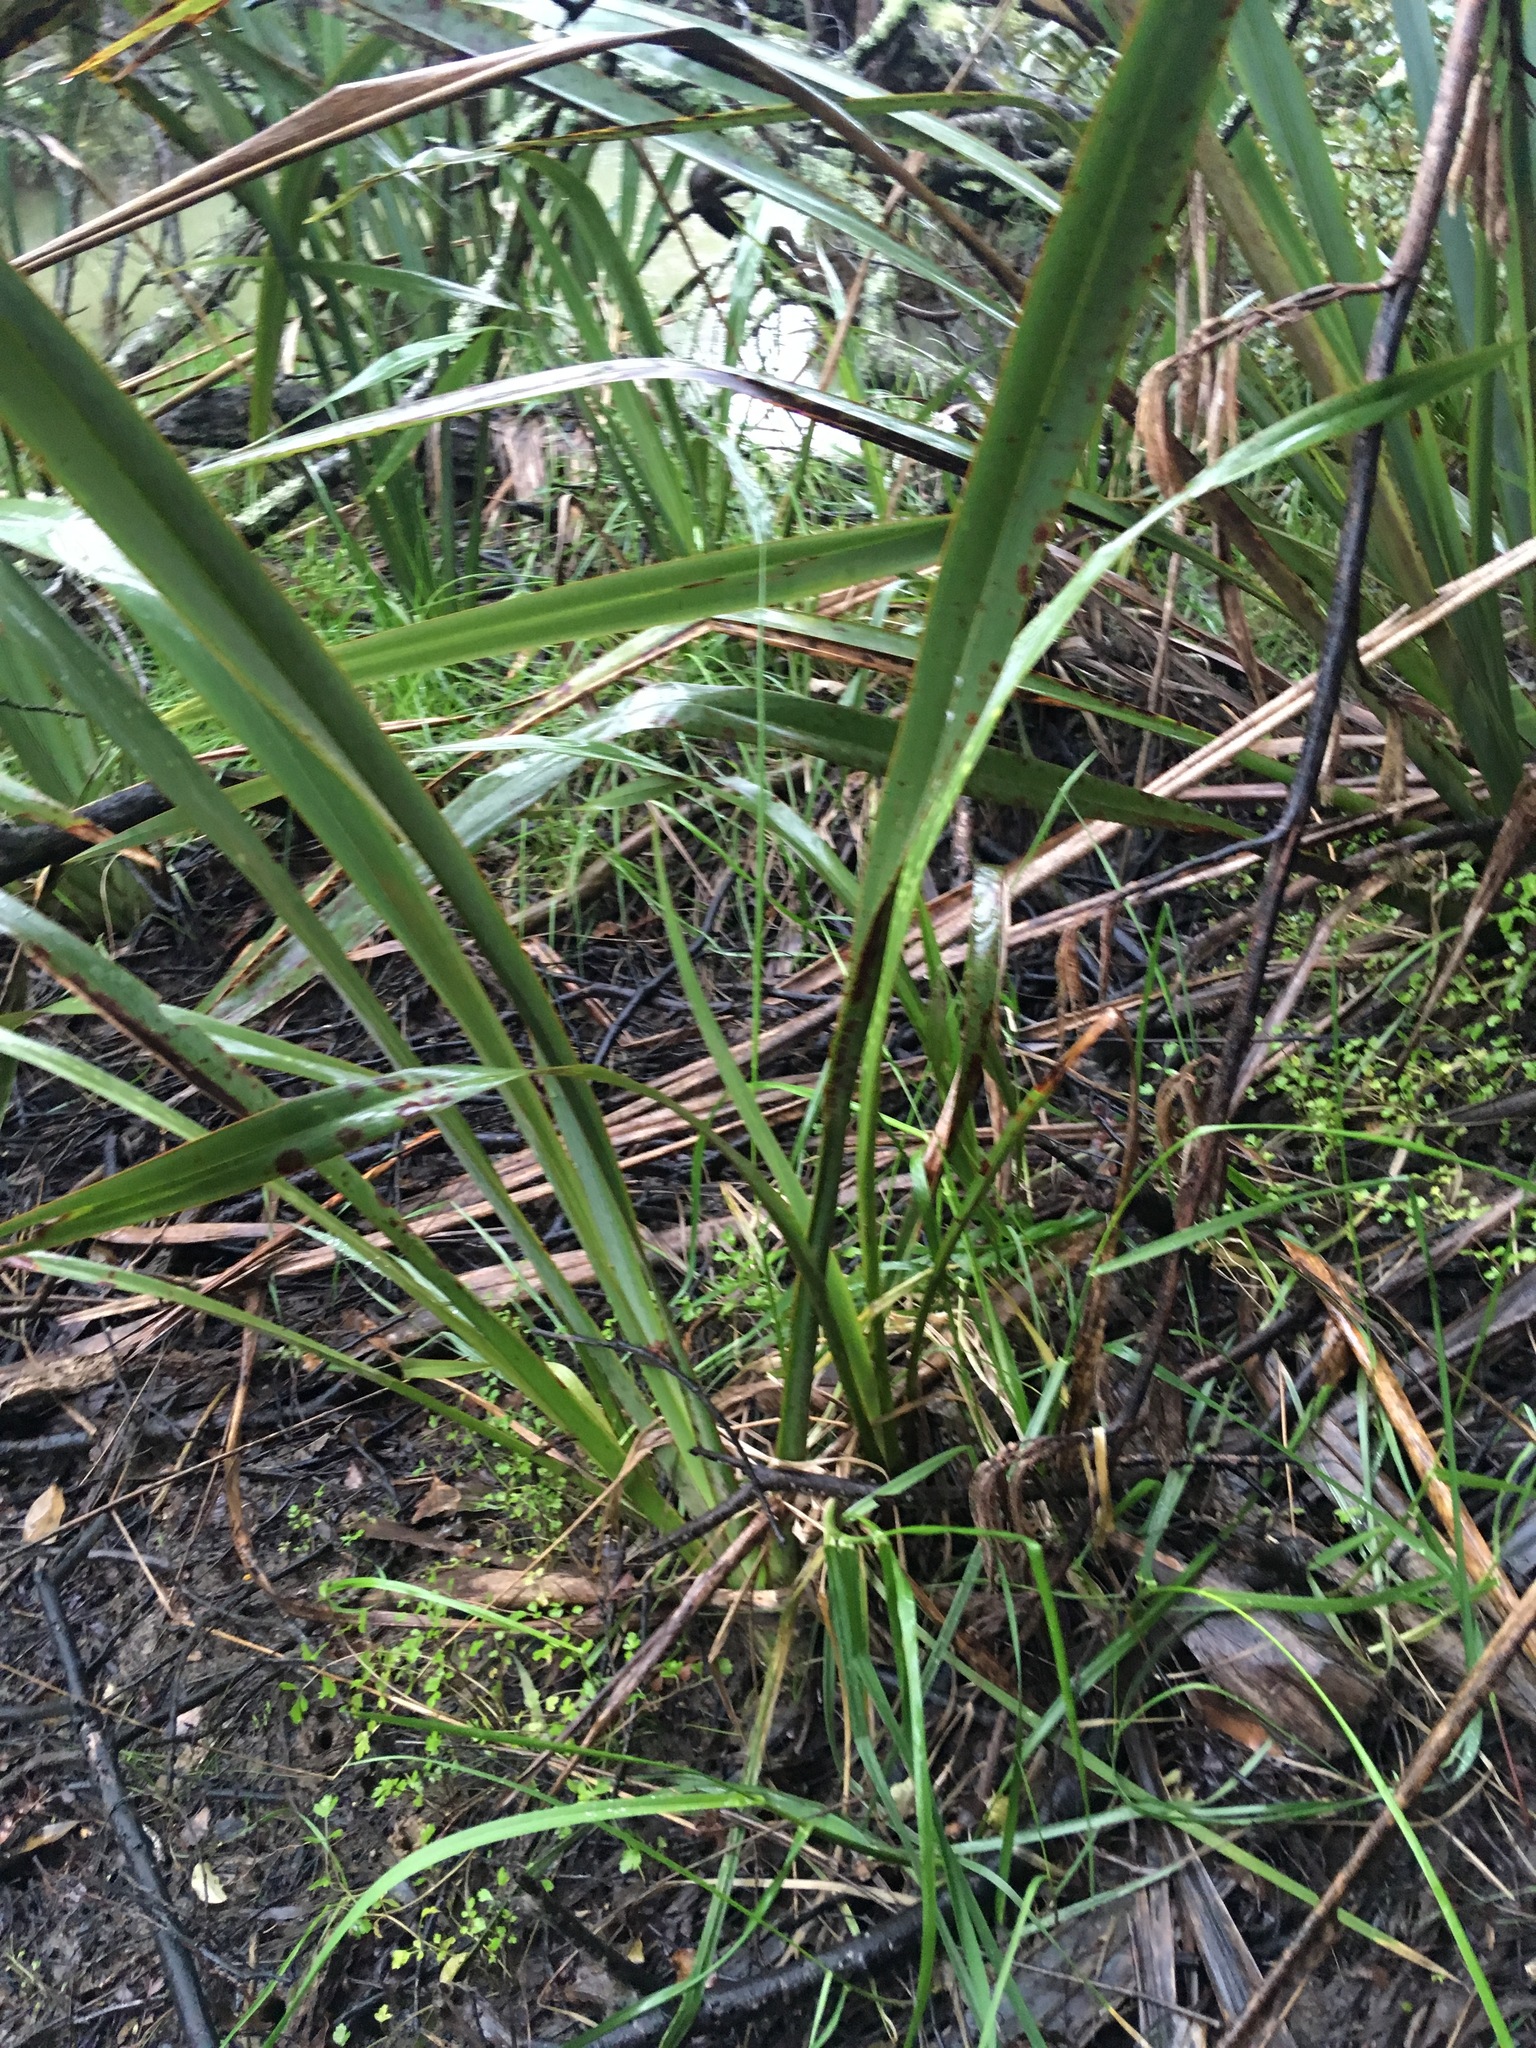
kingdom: Plantae
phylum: Tracheophyta
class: Liliopsida
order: Asparagales
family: Asphodelaceae
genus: Phormium
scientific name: Phormium tenax
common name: New zealand flax
